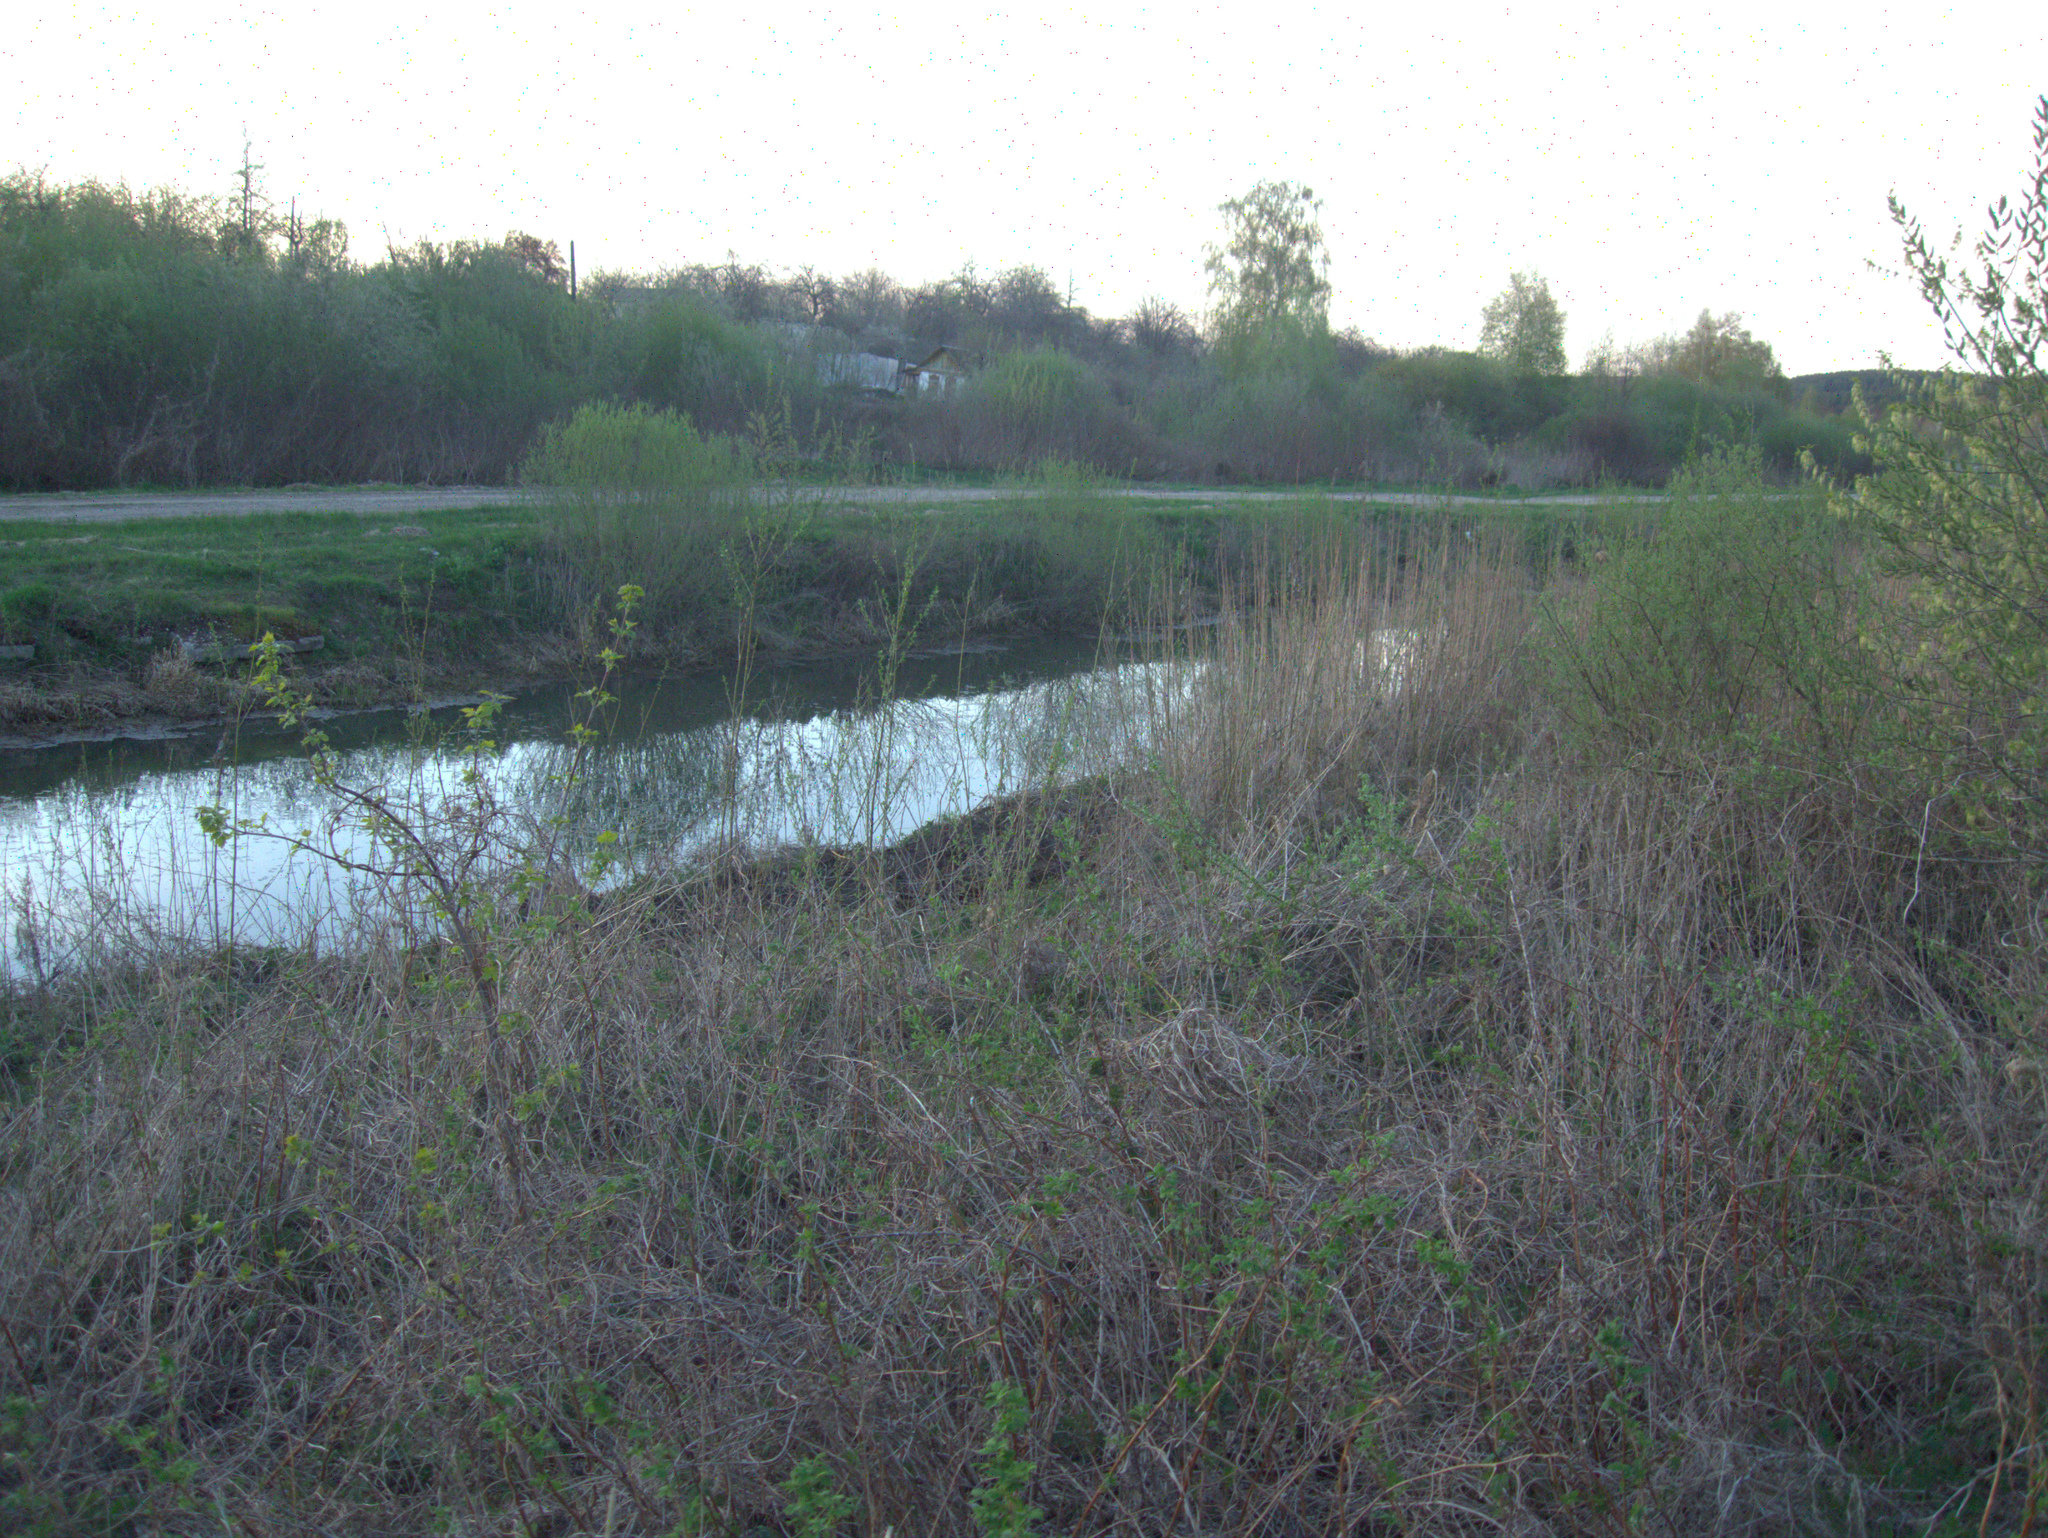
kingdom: Plantae
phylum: Tracheophyta
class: Magnoliopsida
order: Sapindales
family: Sapindaceae
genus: Acer
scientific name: Acer negundo
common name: Ashleaf maple
